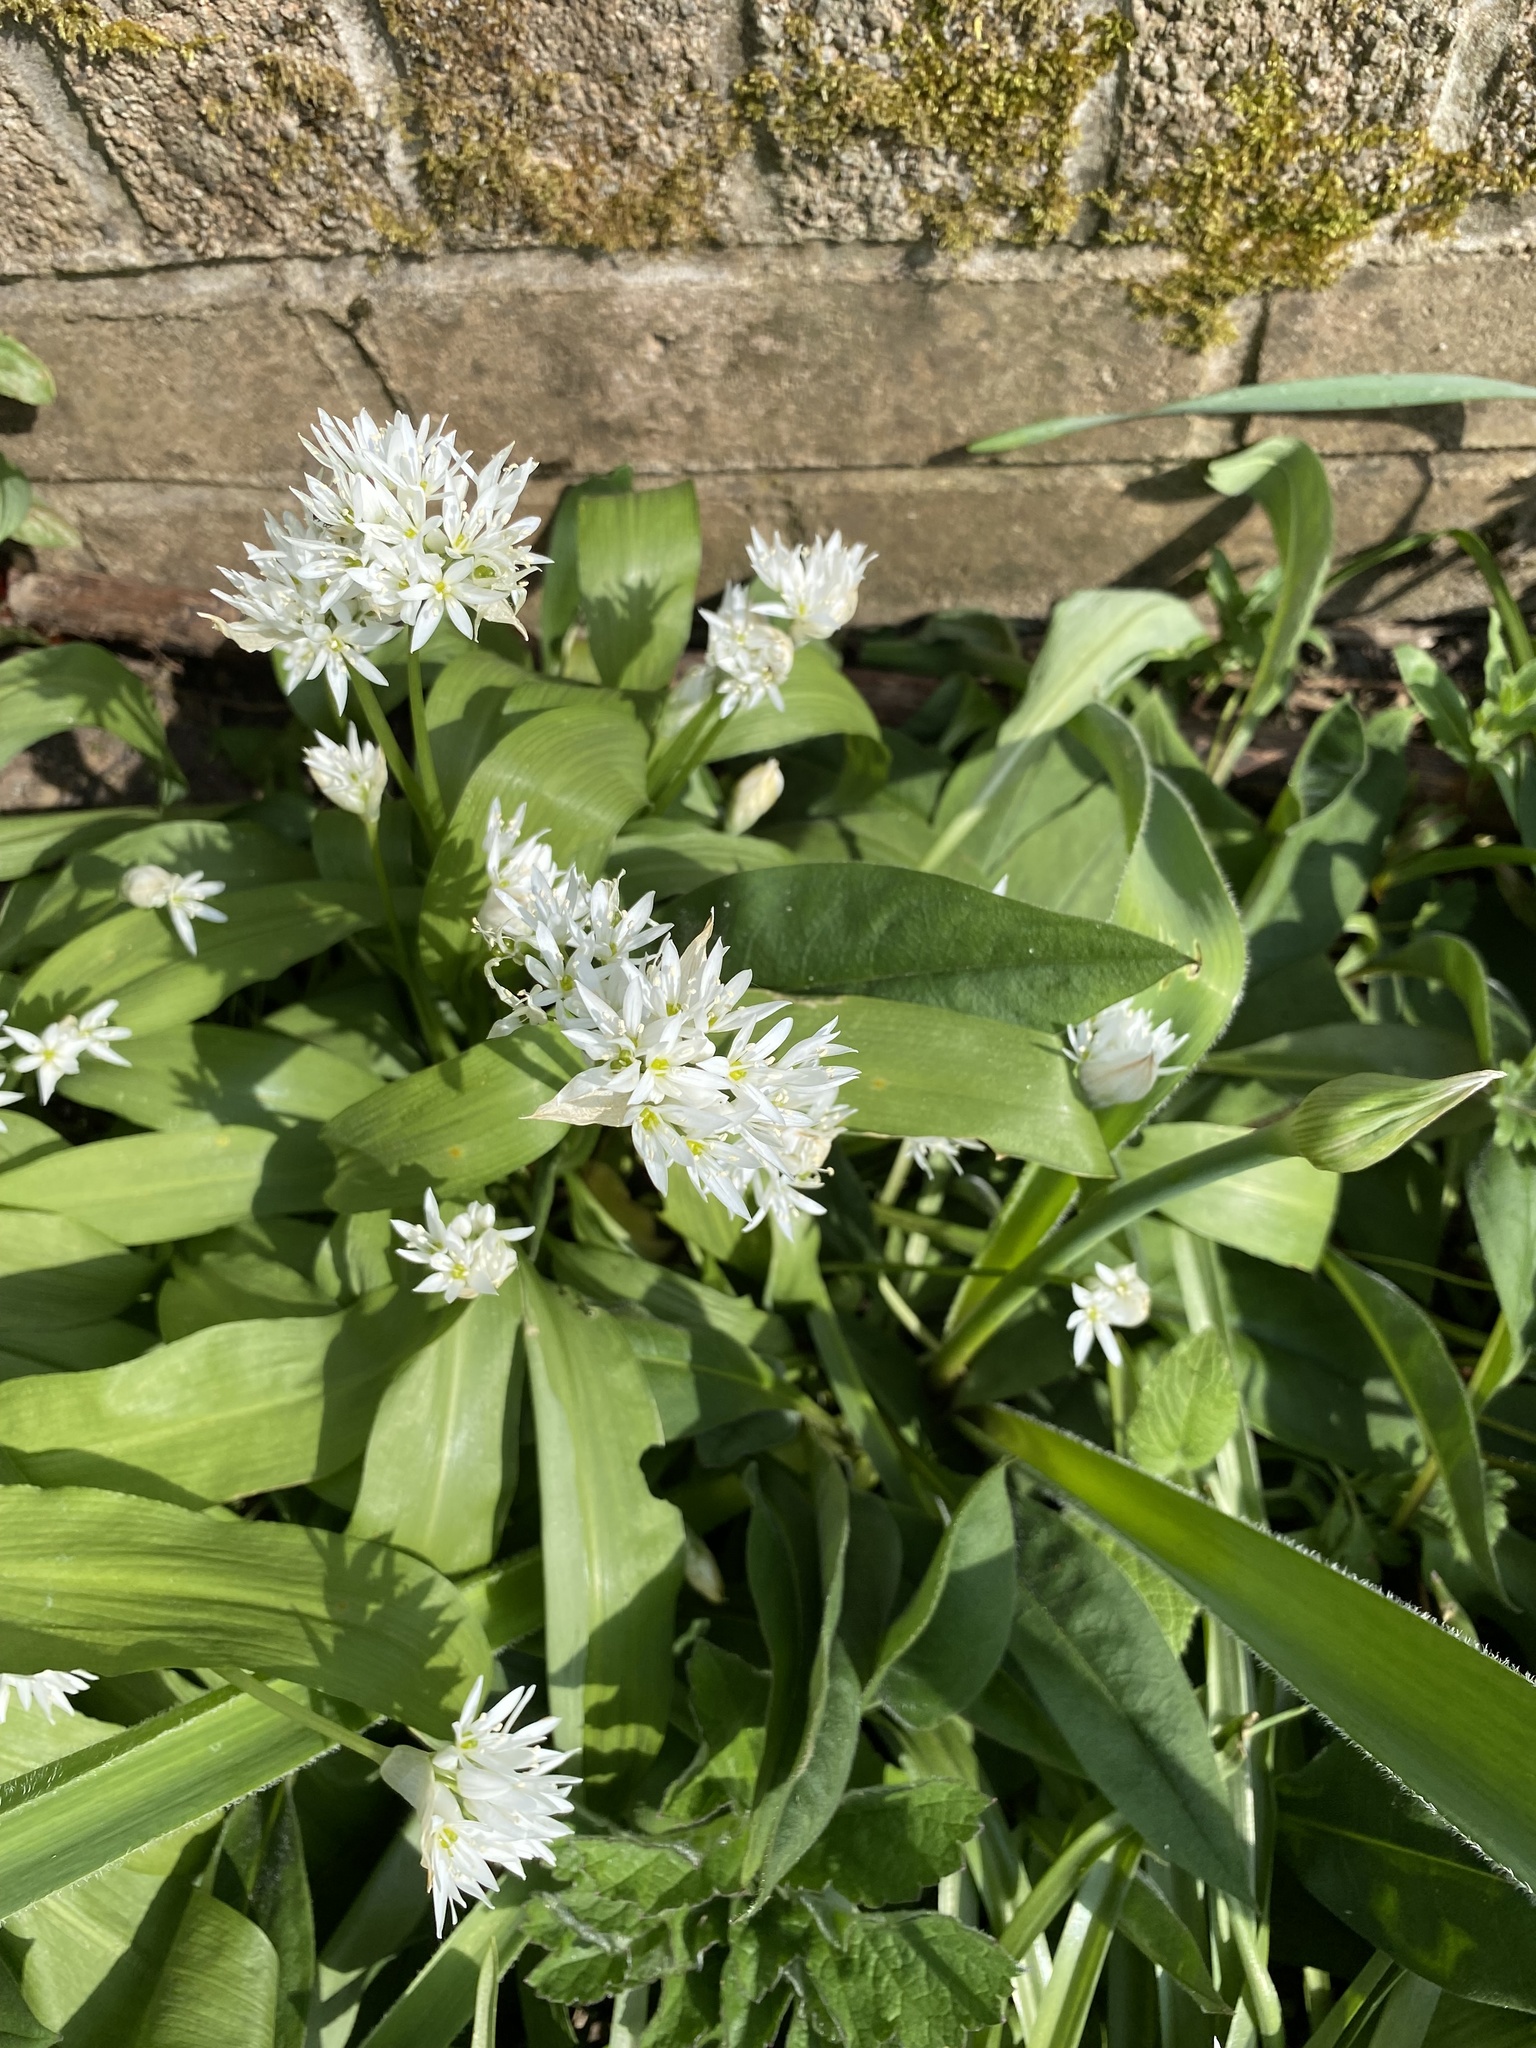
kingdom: Plantae
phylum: Tracheophyta
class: Liliopsida
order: Asparagales
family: Amaryllidaceae
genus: Allium
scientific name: Allium ursinum
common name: Ramsons
